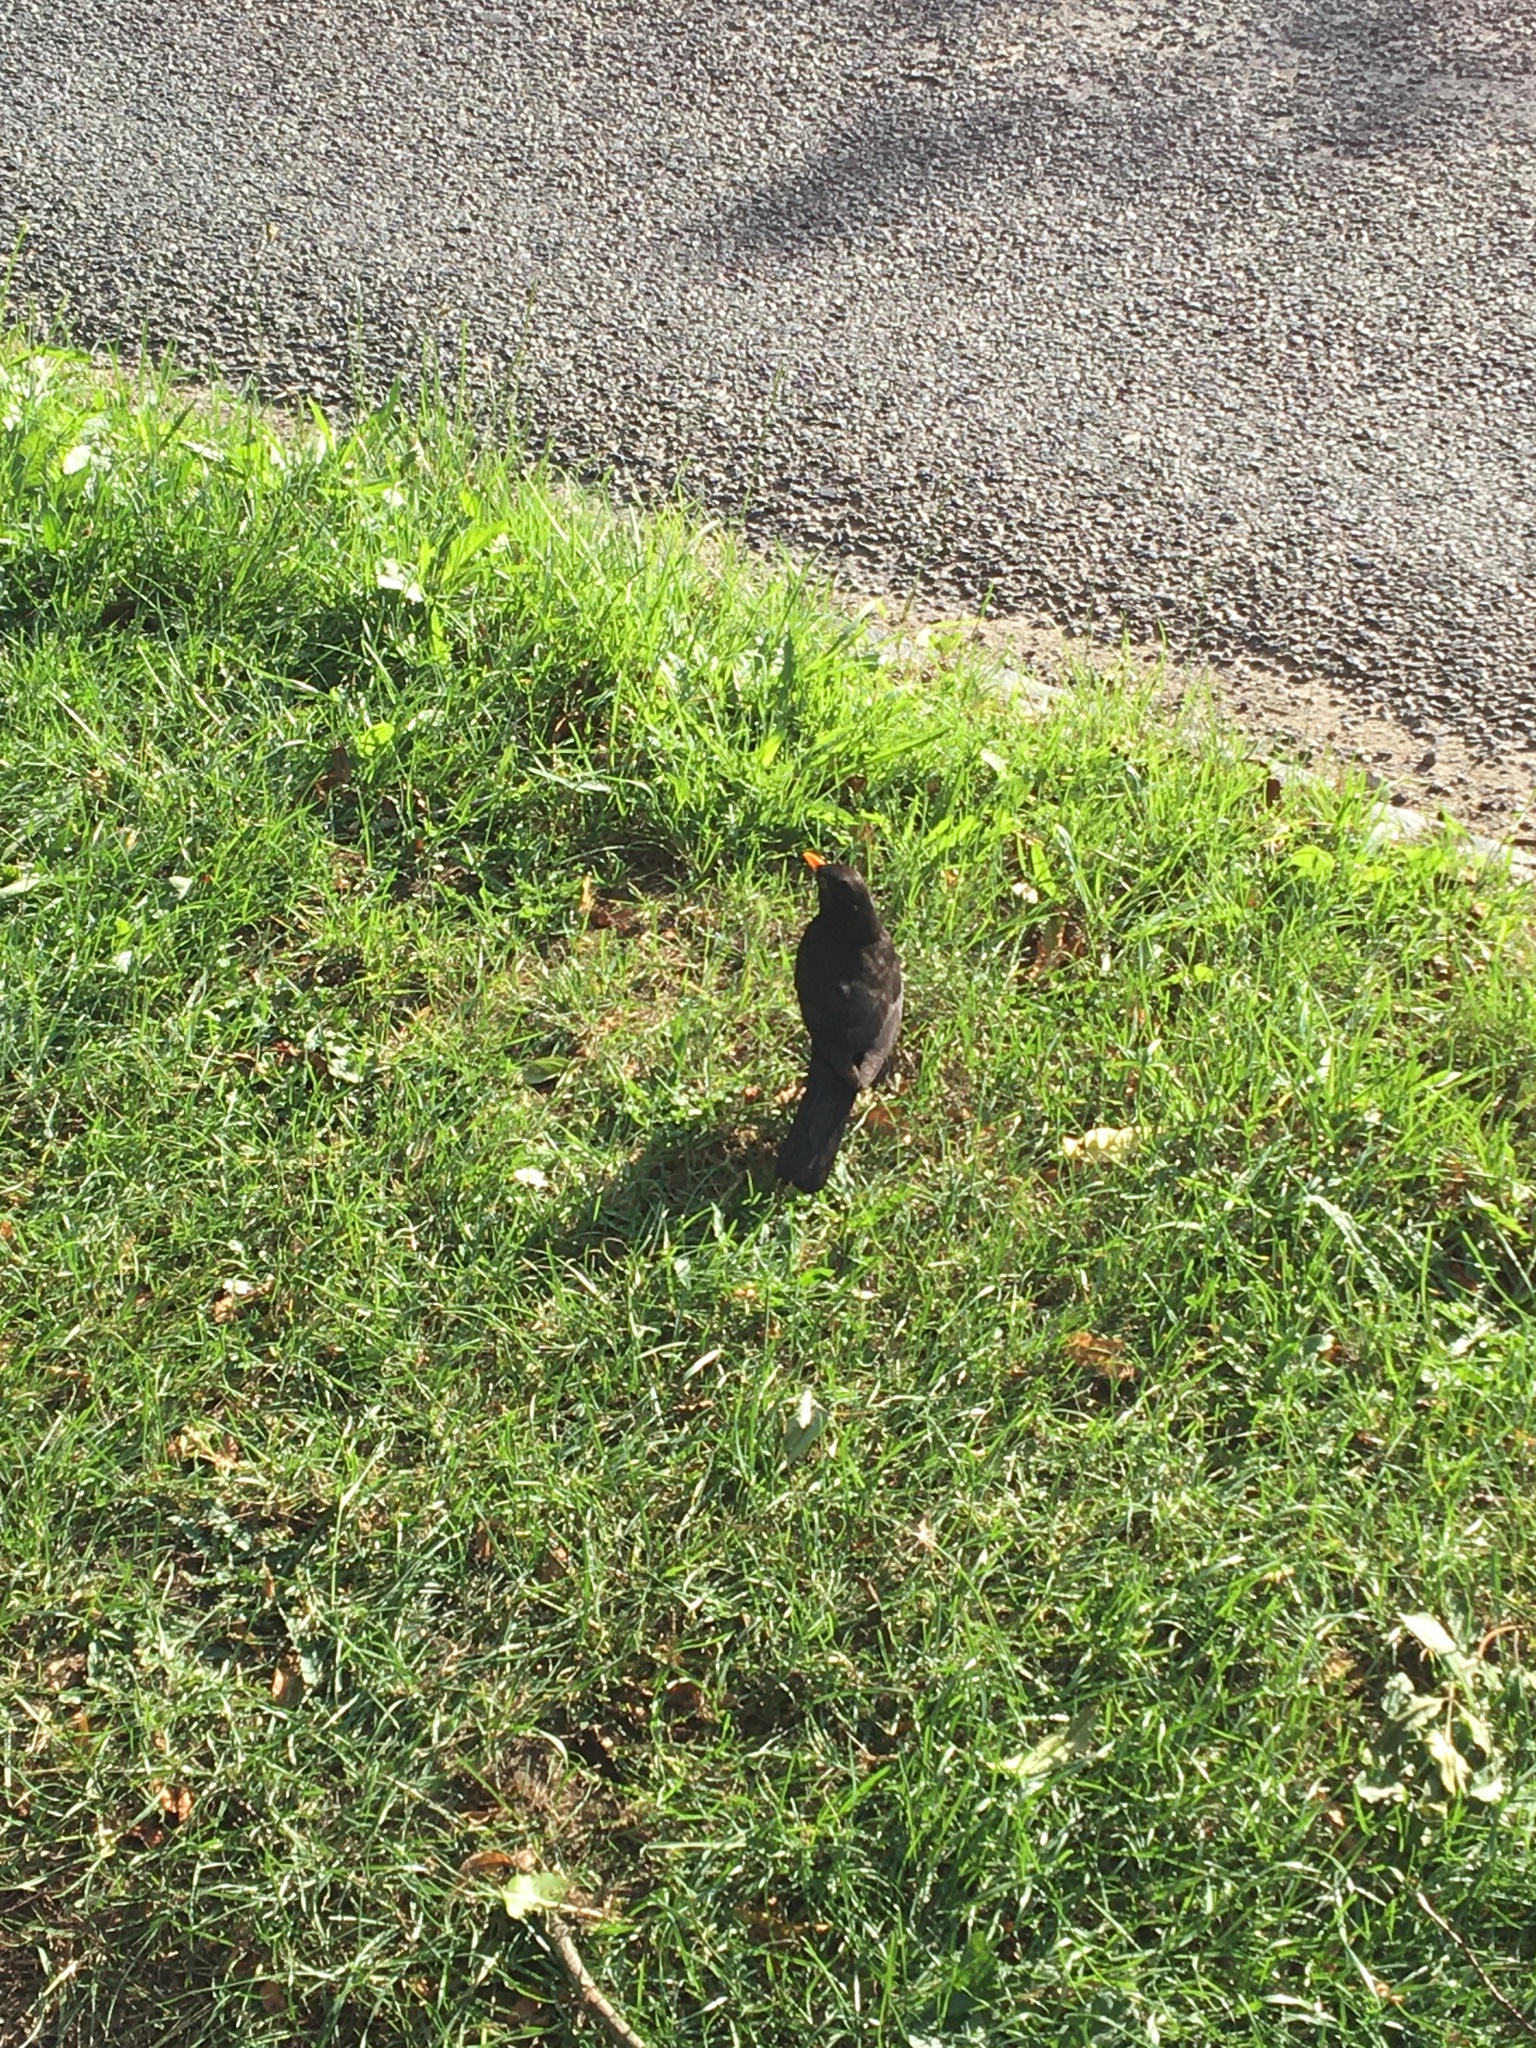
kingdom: Animalia
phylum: Chordata
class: Aves
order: Passeriformes
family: Turdidae
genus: Turdus
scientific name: Turdus merula
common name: Common blackbird
